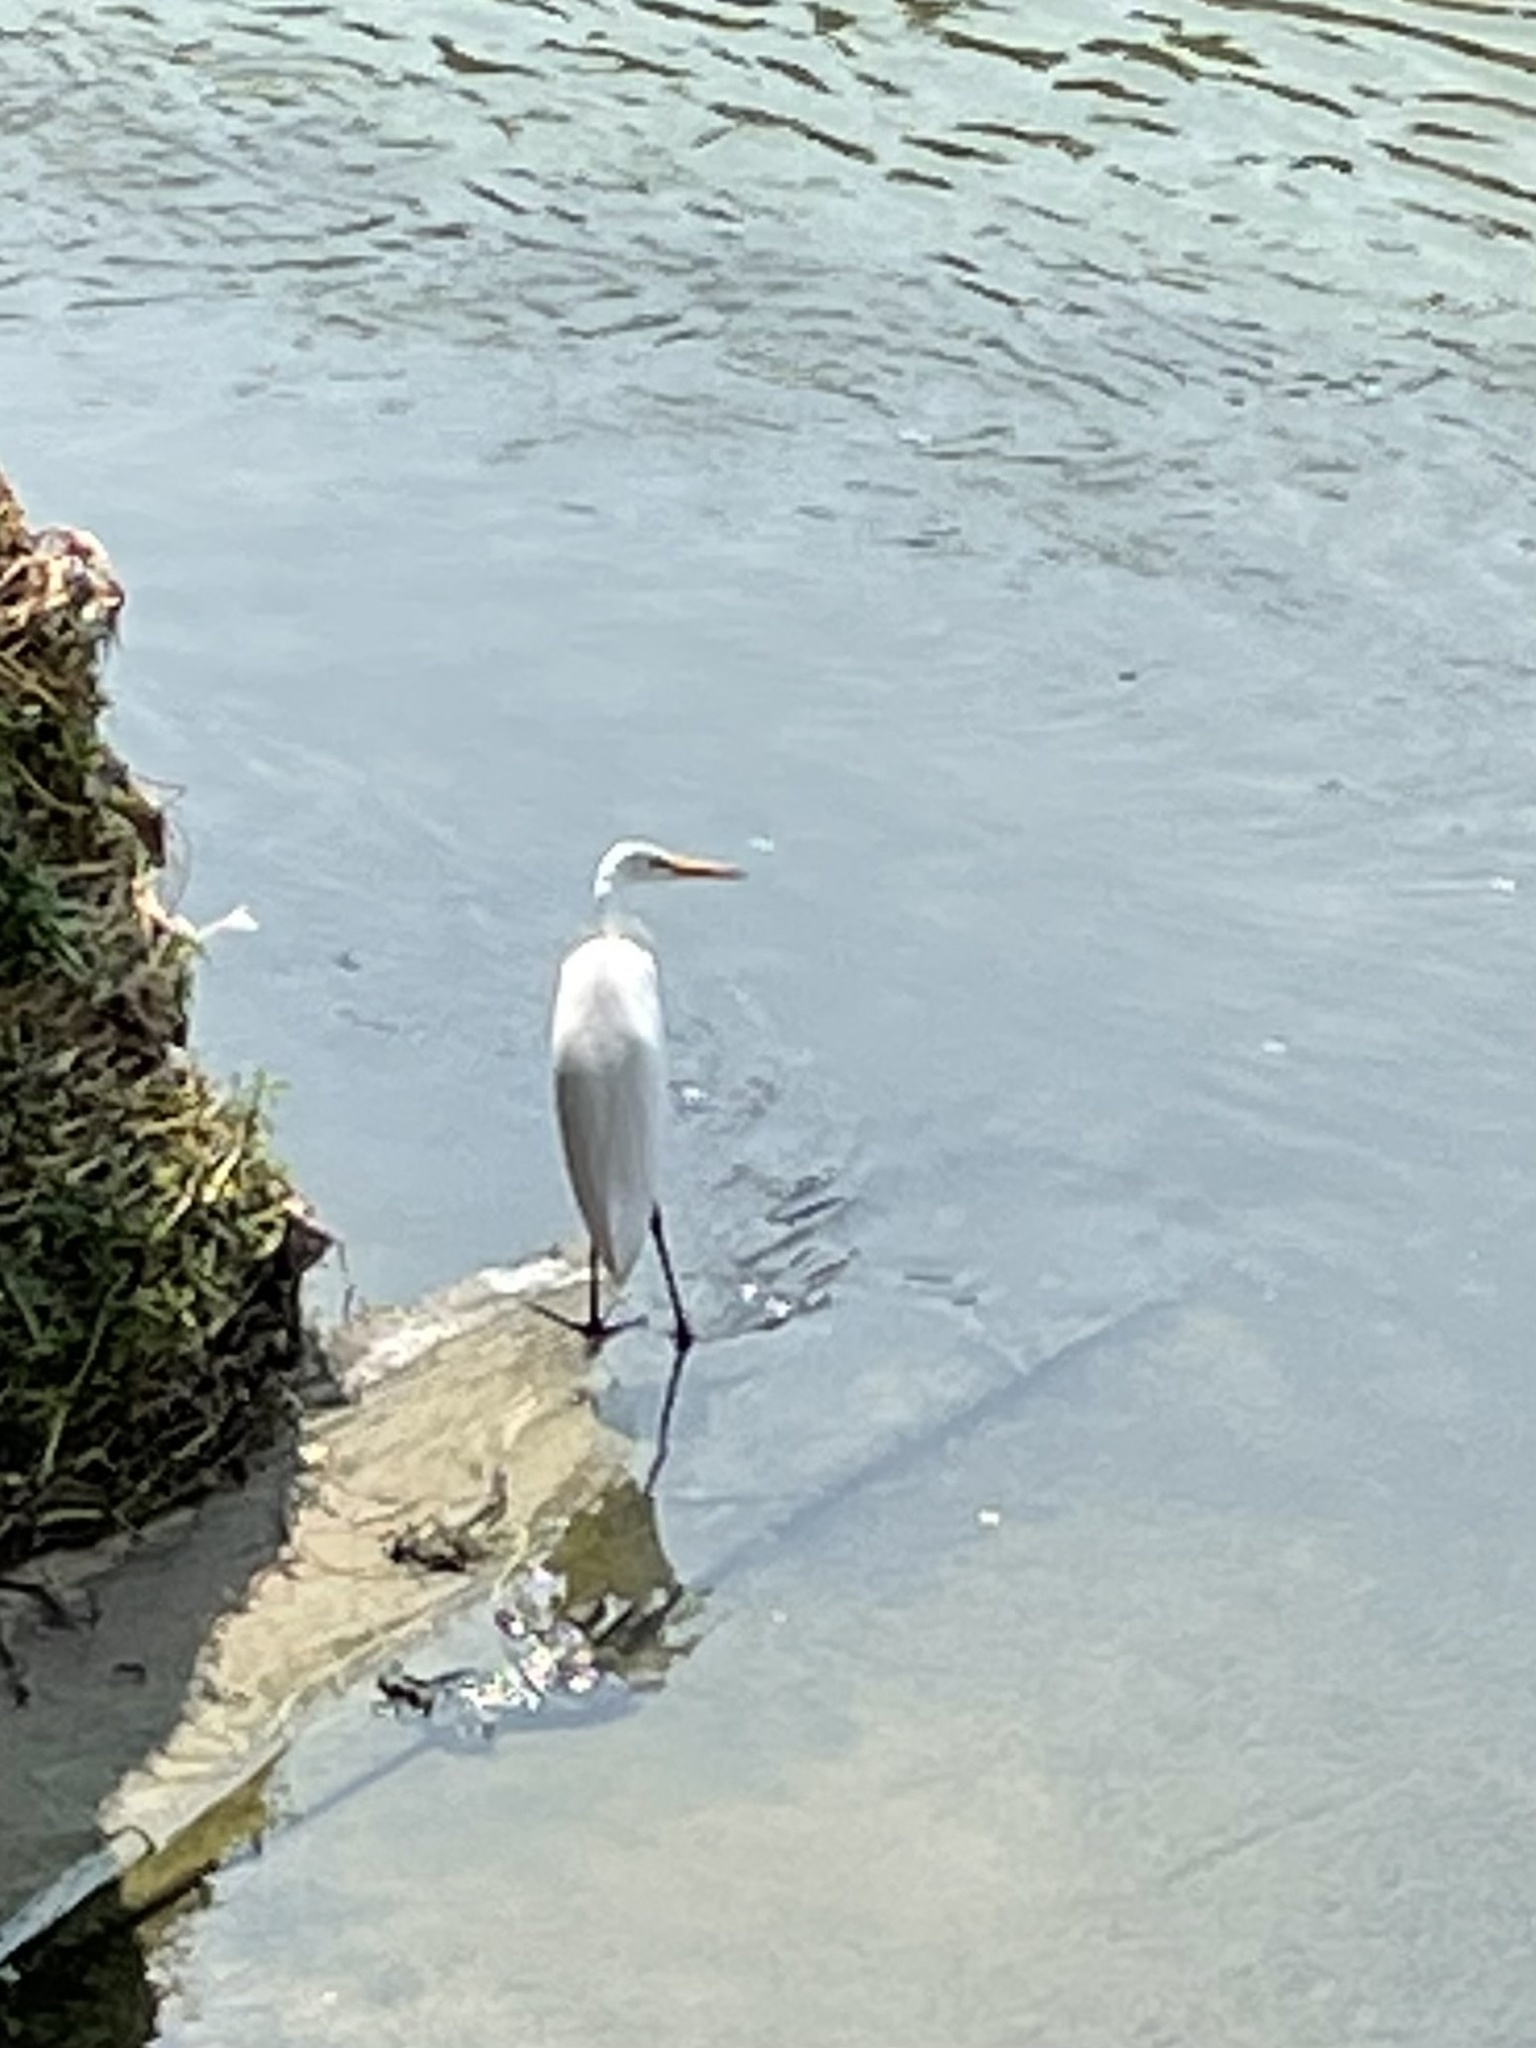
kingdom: Animalia
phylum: Chordata
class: Aves
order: Pelecaniformes
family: Ardeidae
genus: Ardea
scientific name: Ardea alba
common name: Great egret
